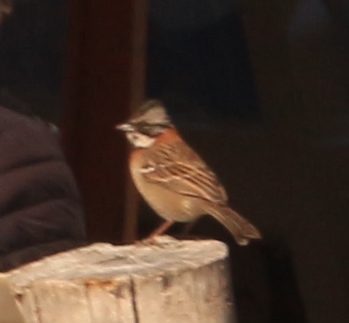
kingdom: Animalia
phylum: Chordata
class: Aves
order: Passeriformes
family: Passerellidae
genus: Zonotrichia
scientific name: Zonotrichia capensis
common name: Rufous-collared sparrow
